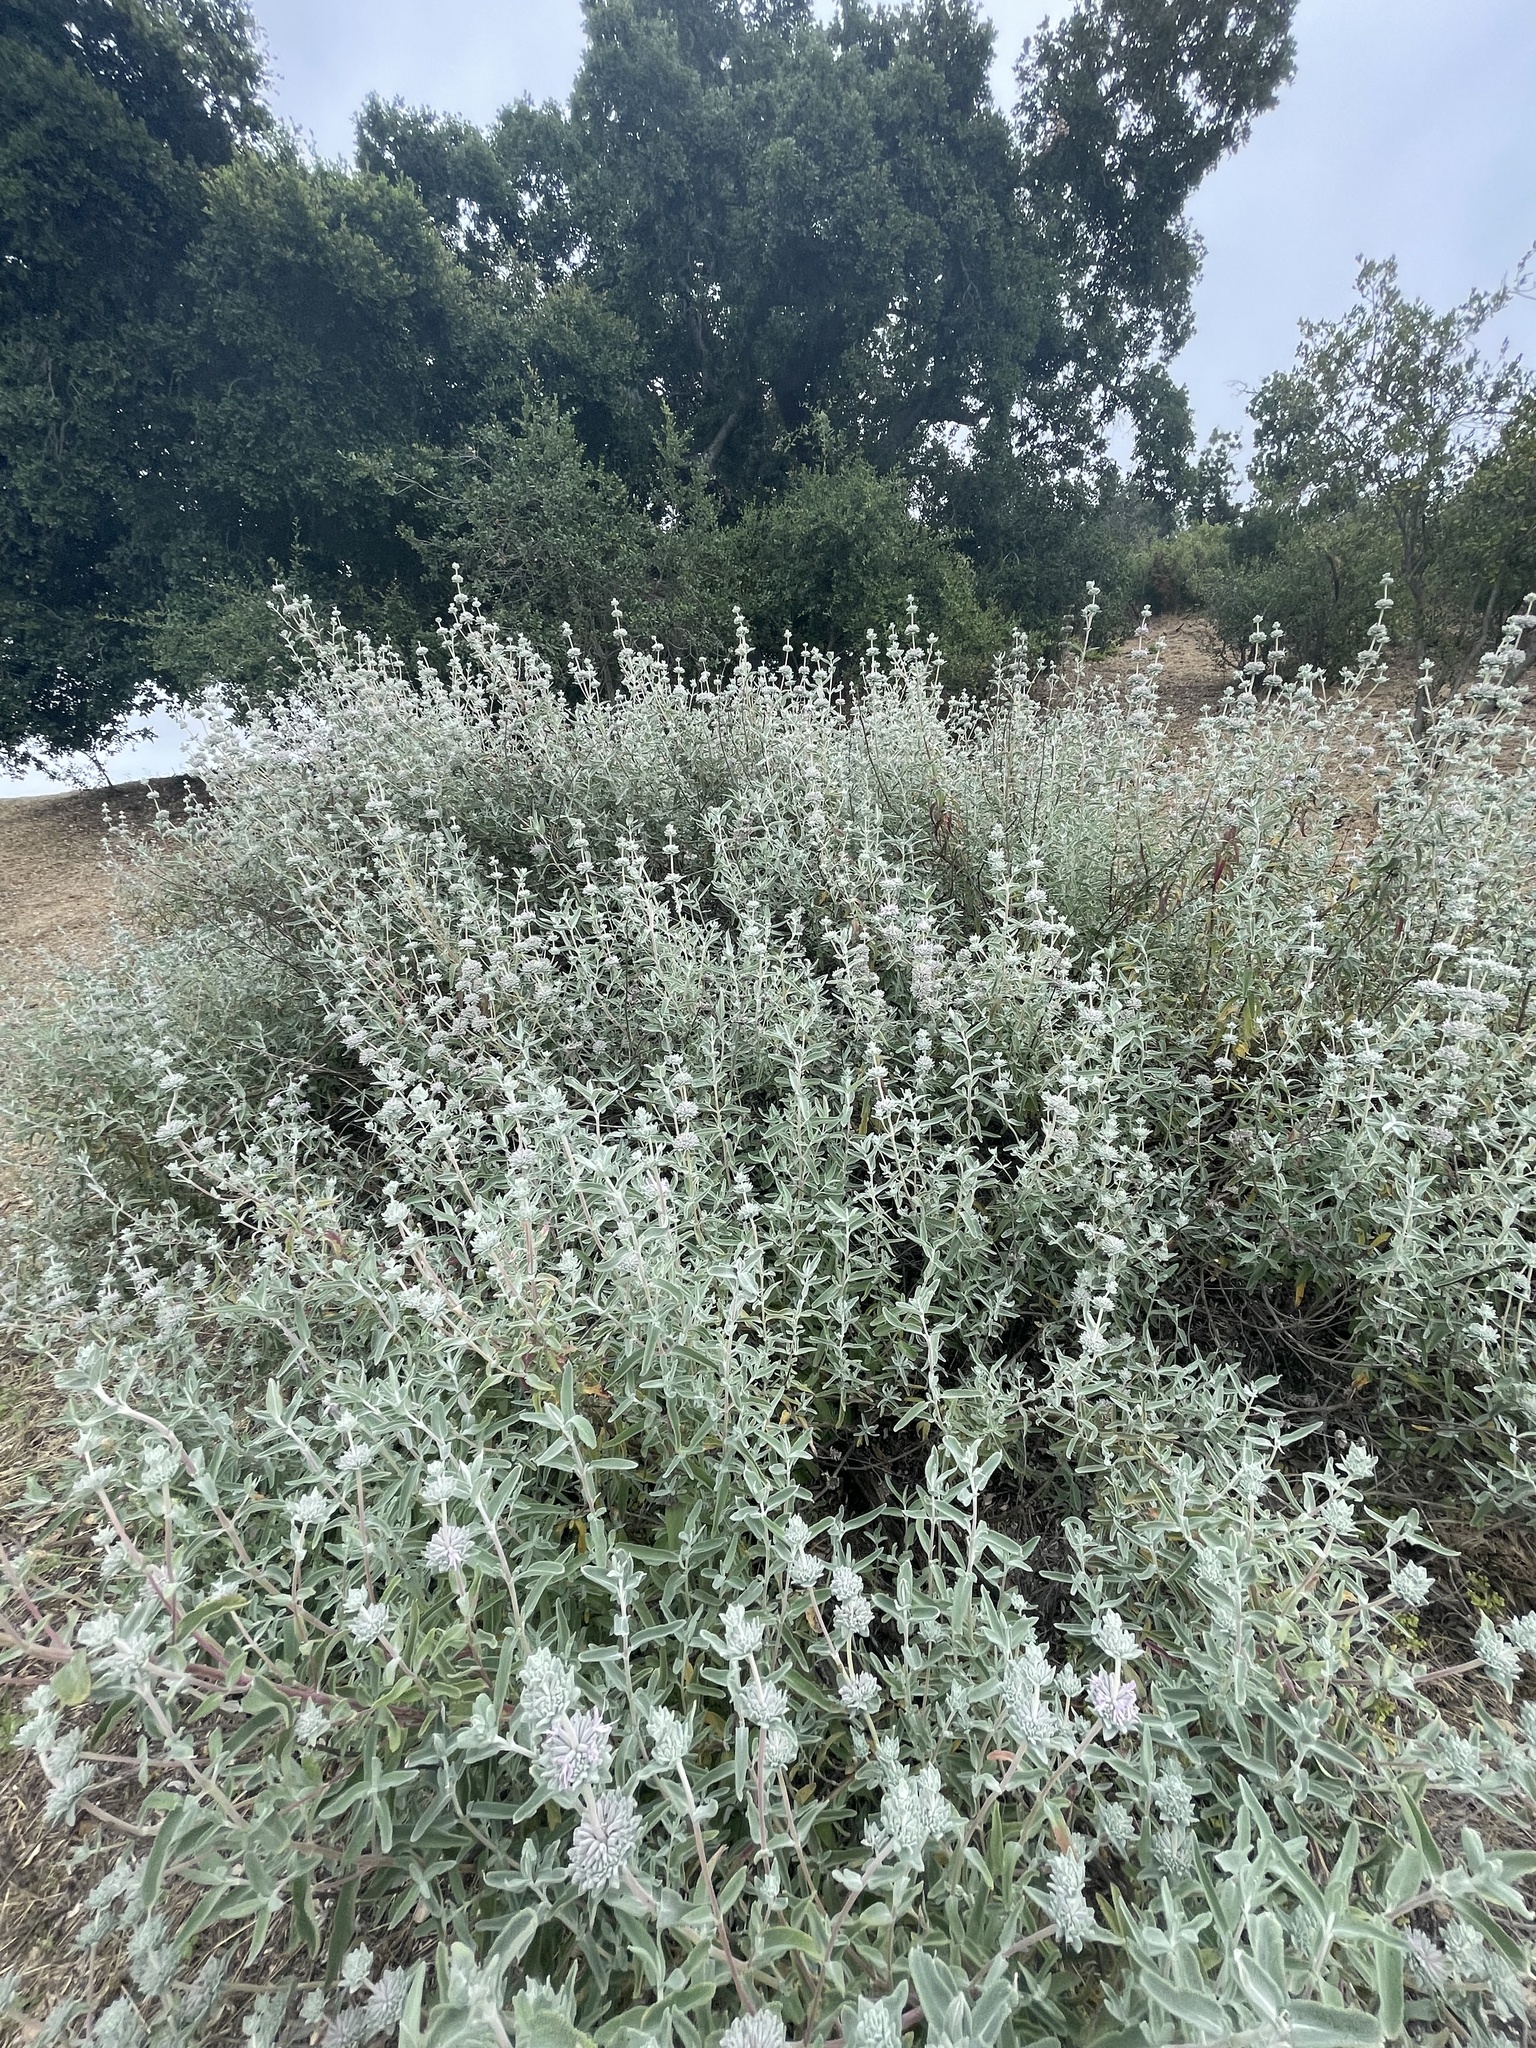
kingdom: Plantae
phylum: Tracheophyta
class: Magnoliopsida
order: Lamiales
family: Lamiaceae
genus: Salvia
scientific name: Salvia leucophylla
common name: Purple sage
